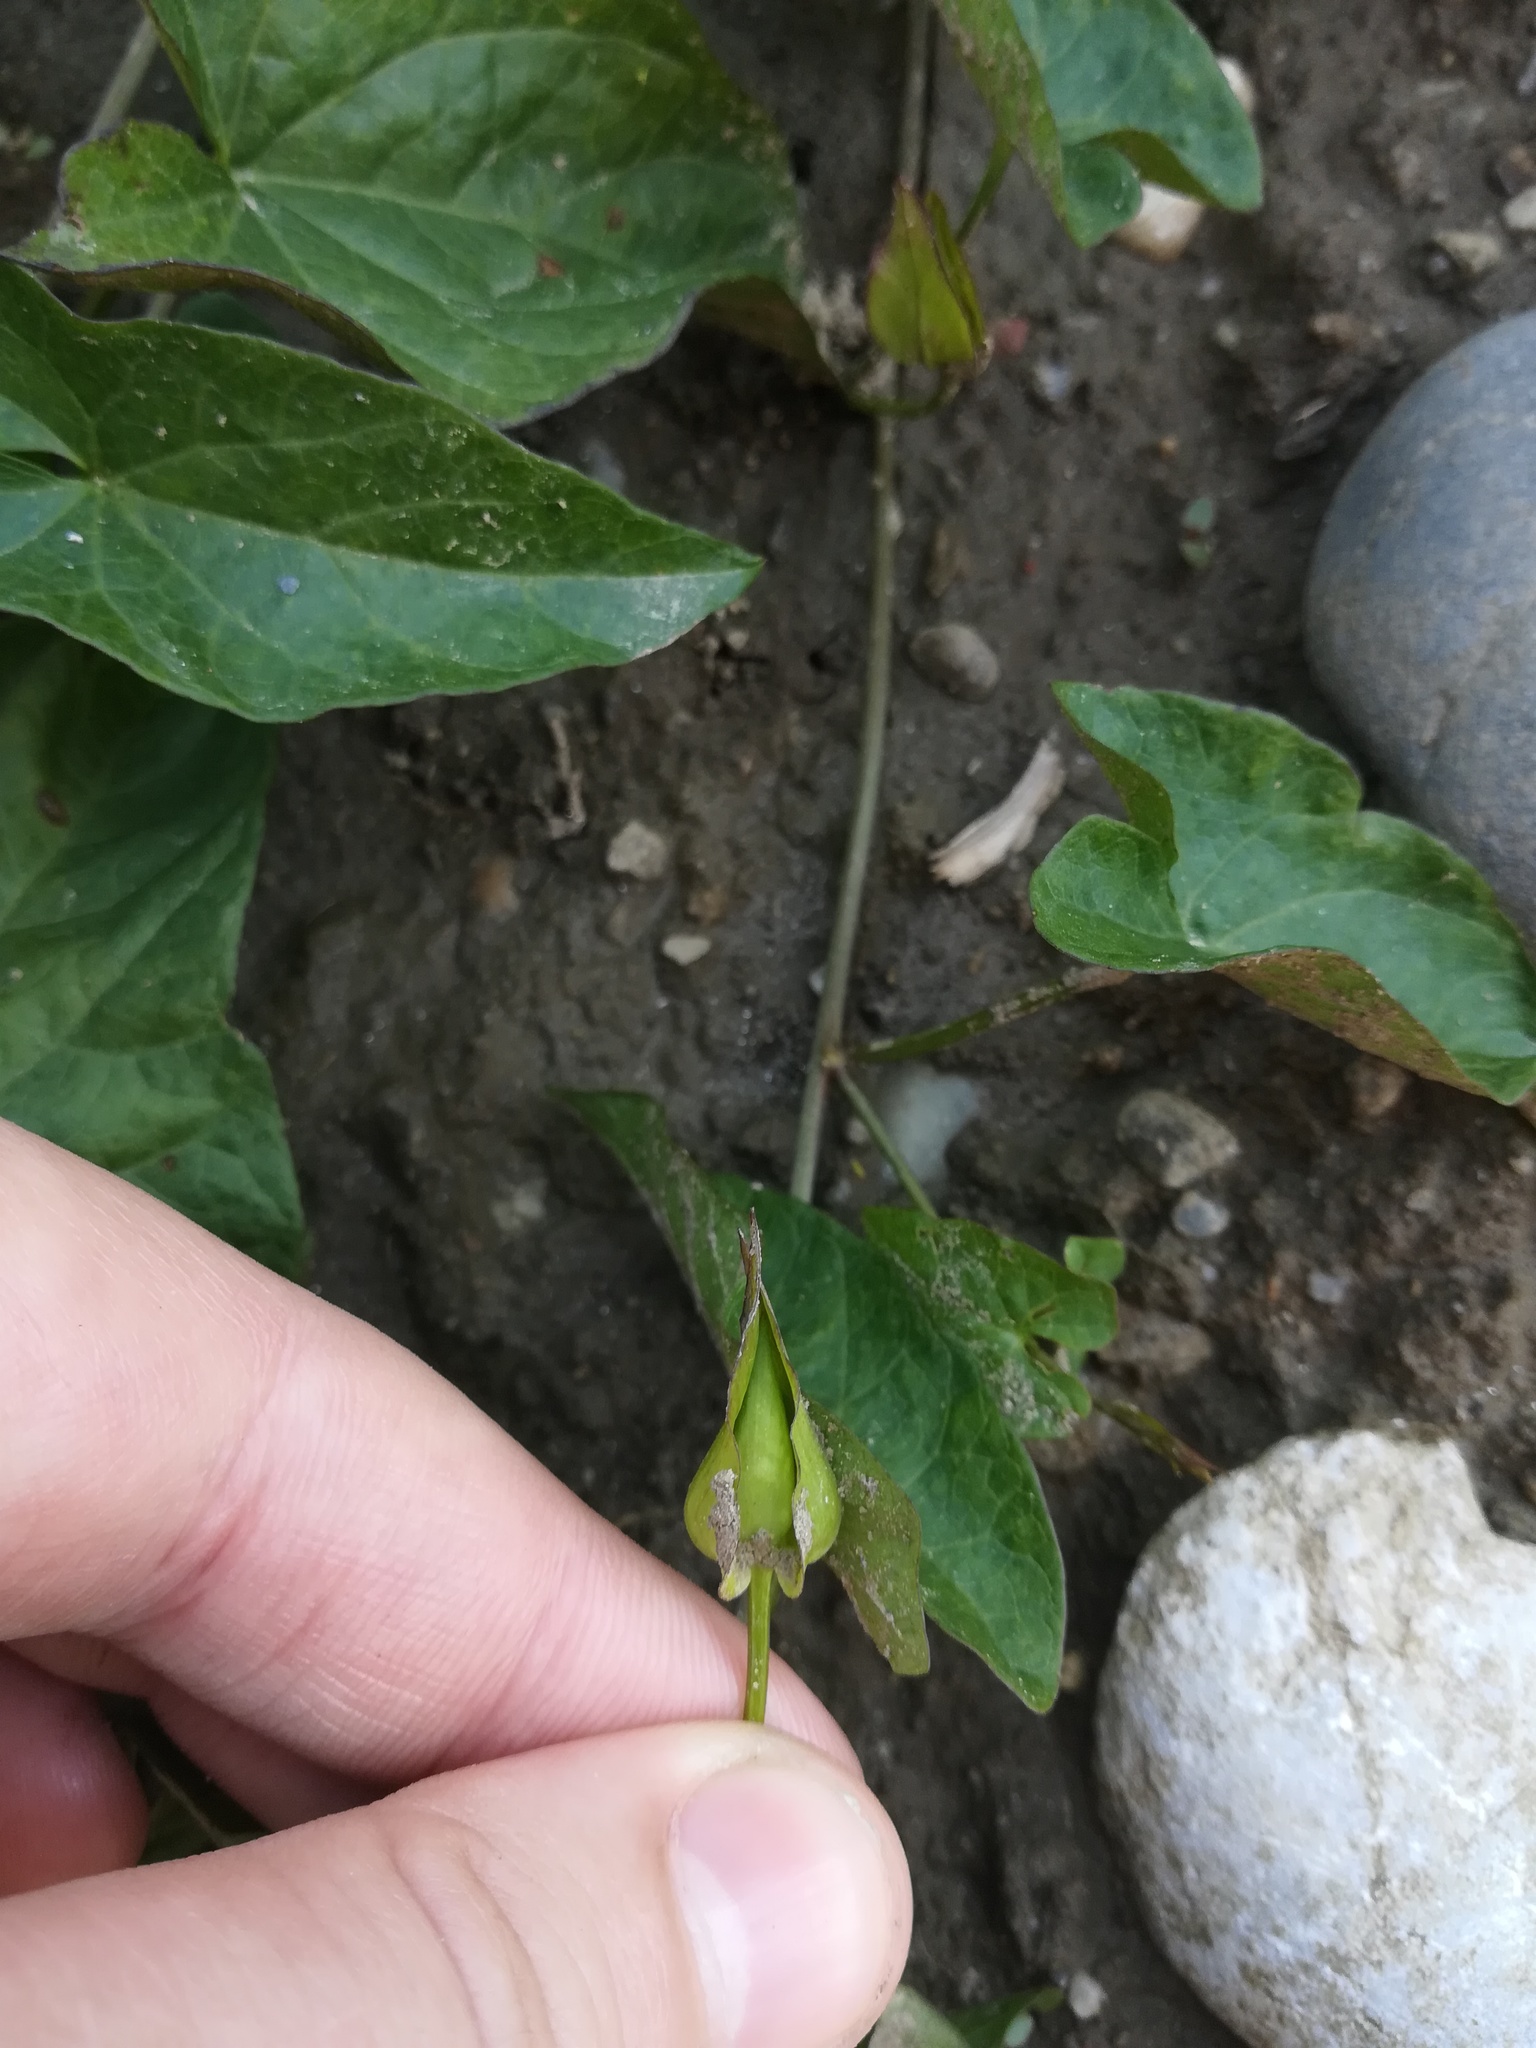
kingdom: Plantae
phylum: Tracheophyta
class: Magnoliopsida
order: Solanales
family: Convolvulaceae
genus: Calystegia
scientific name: Calystegia sepium
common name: Hedge bindweed
